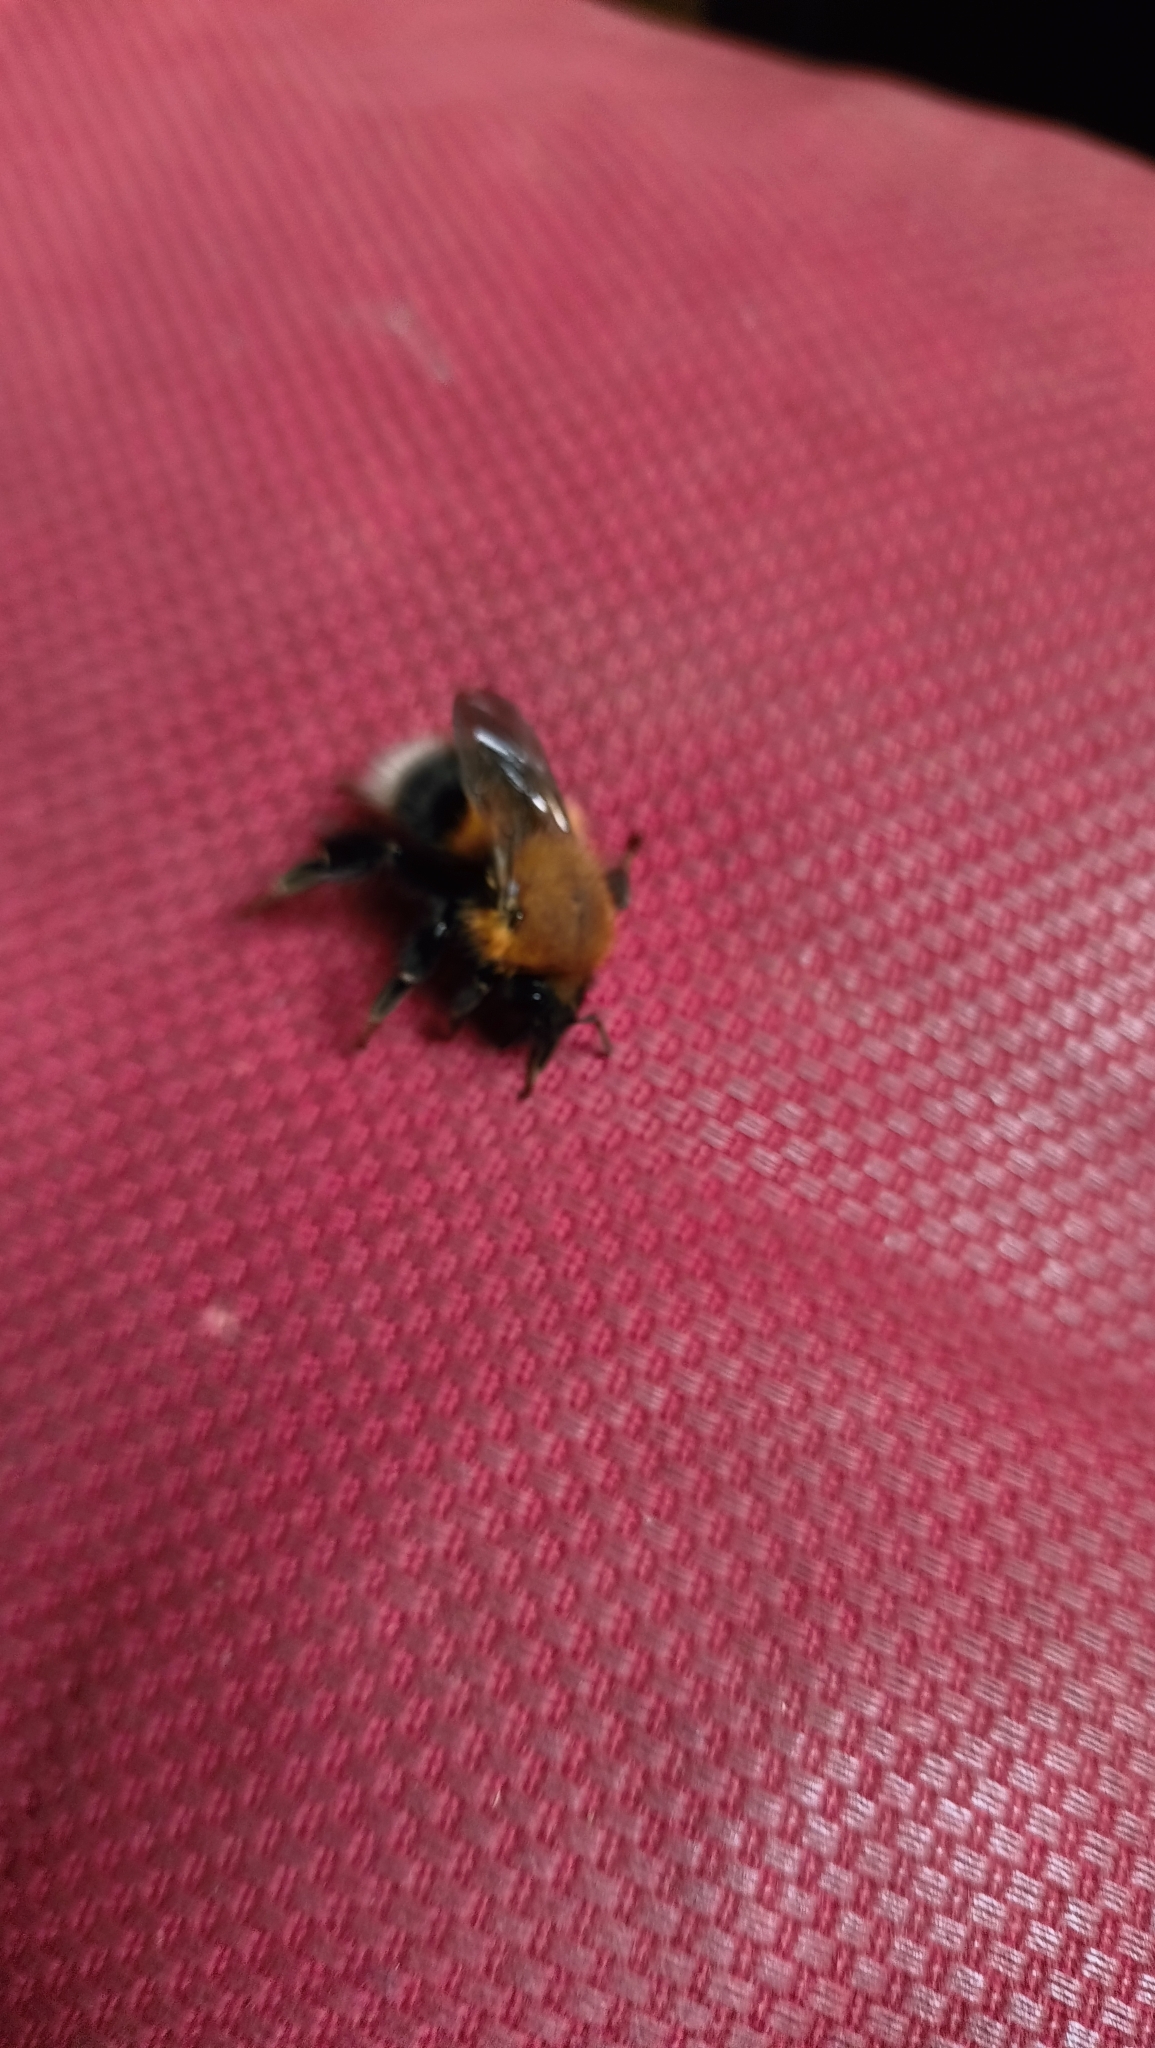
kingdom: Animalia
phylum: Arthropoda
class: Insecta
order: Hymenoptera
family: Apidae
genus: Bombus
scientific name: Bombus hypnorum
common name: New garden bumblebee
